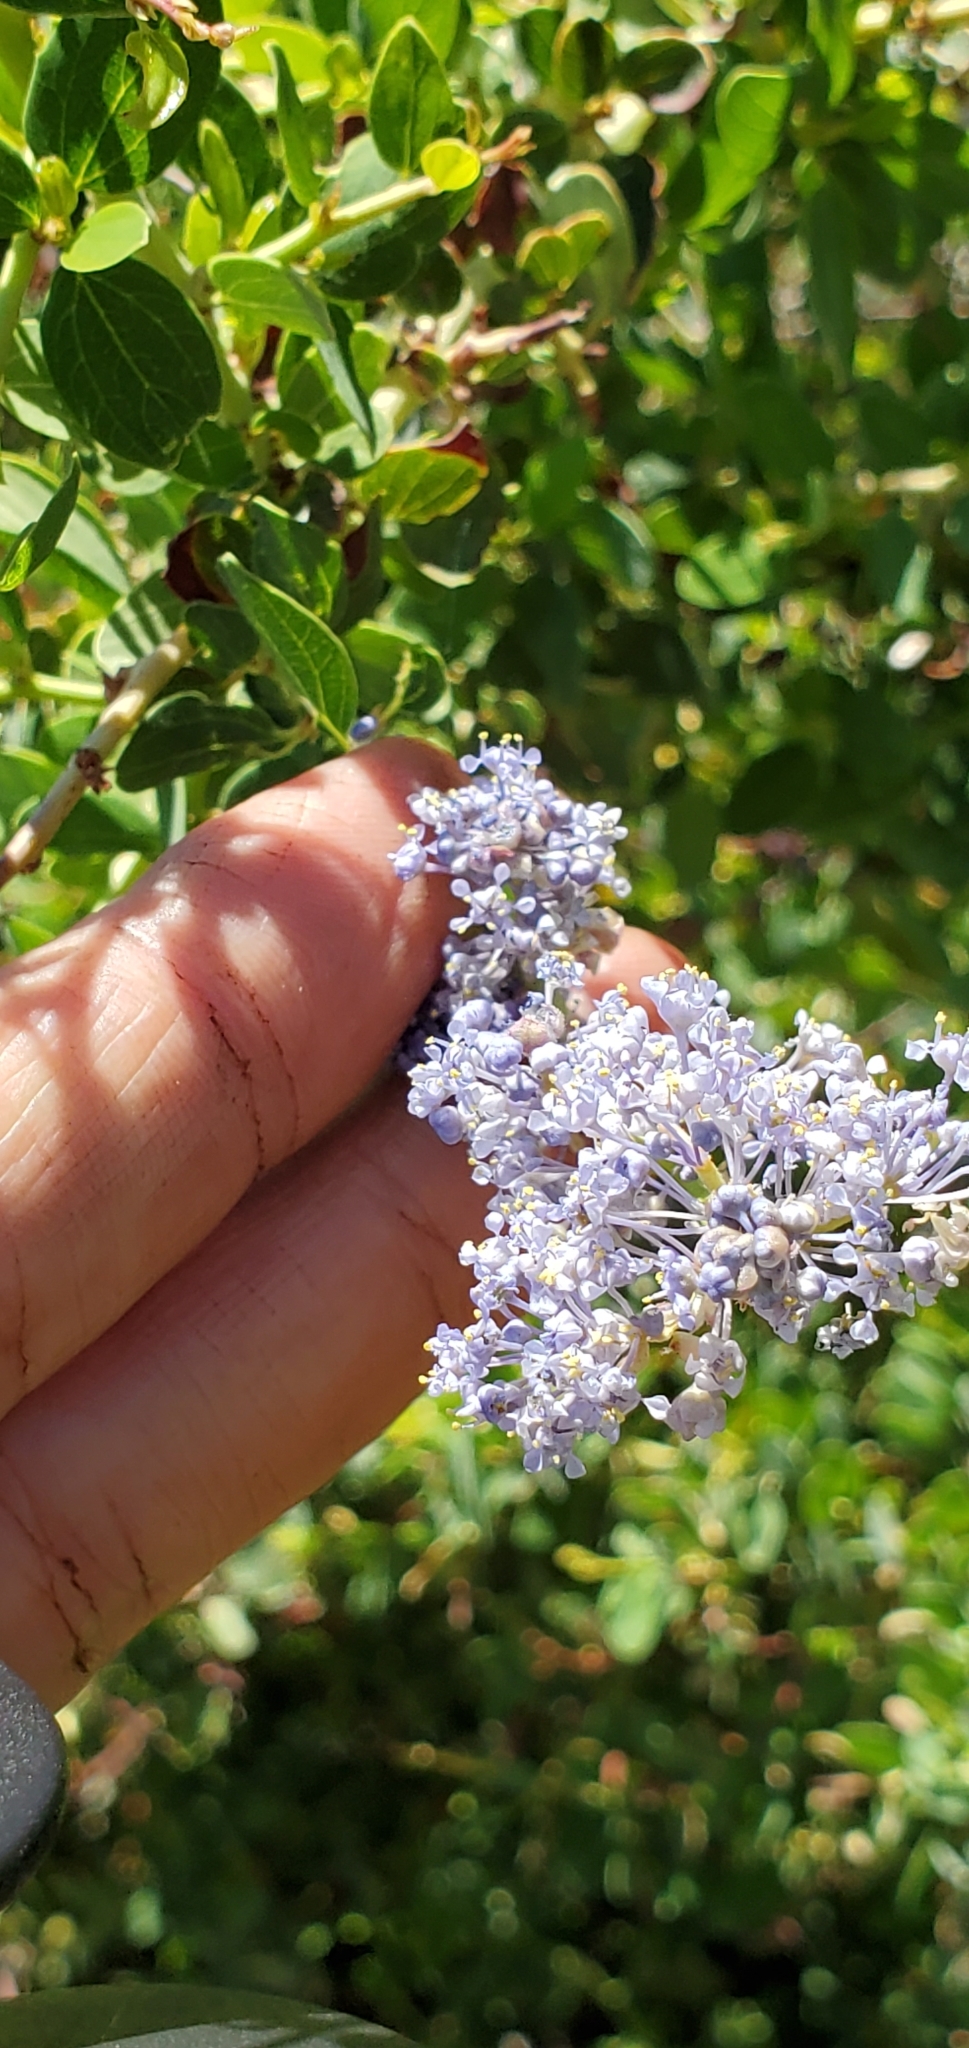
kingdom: Plantae
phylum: Tracheophyta
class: Magnoliopsida
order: Rosales
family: Rhamnaceae
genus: Ceanothus
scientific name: Ceanothus leucodermis
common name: Chaparral whitethorn
